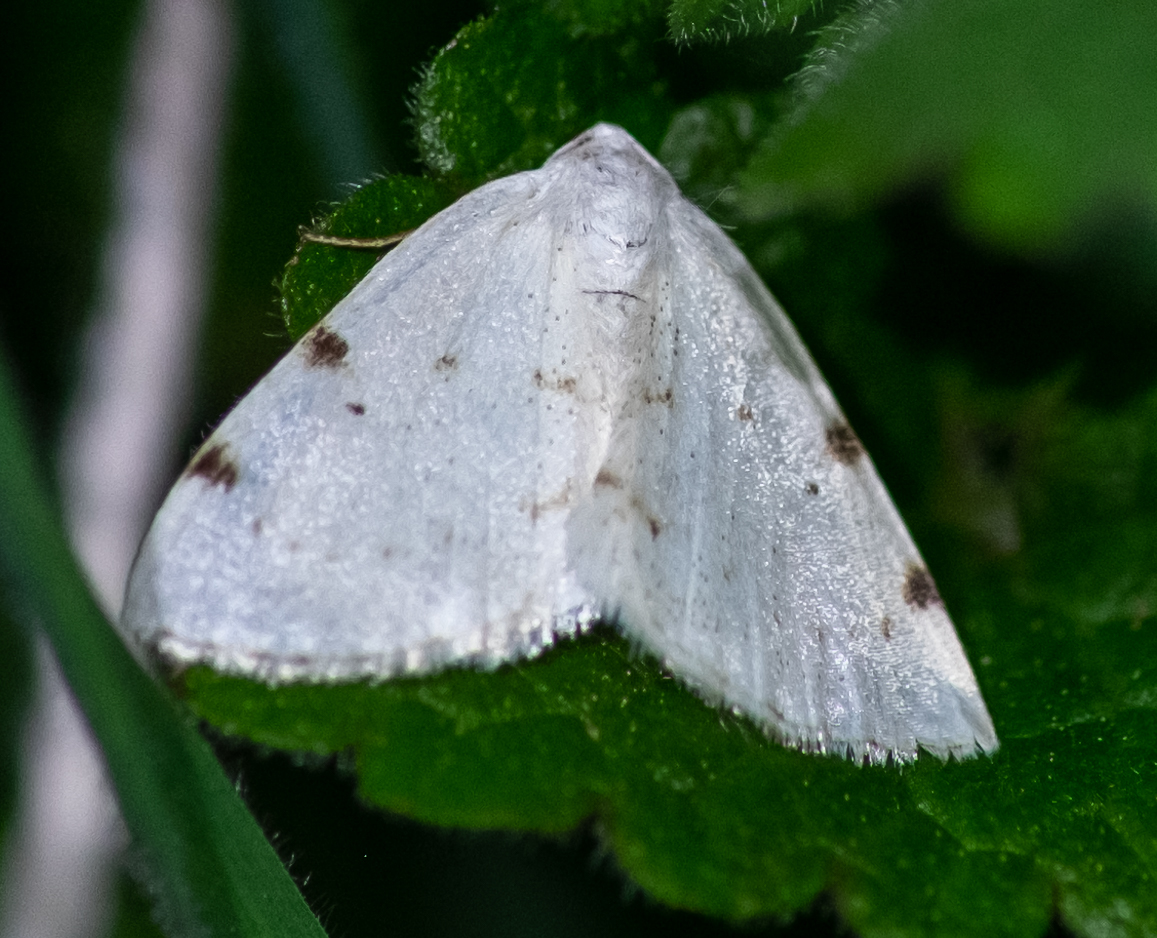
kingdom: Animalia
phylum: Arthropoda
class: Insecta
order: Lepidoptera
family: Geometridae
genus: Lomographa
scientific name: Lomographa bimaculata
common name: White-pinion spotted
